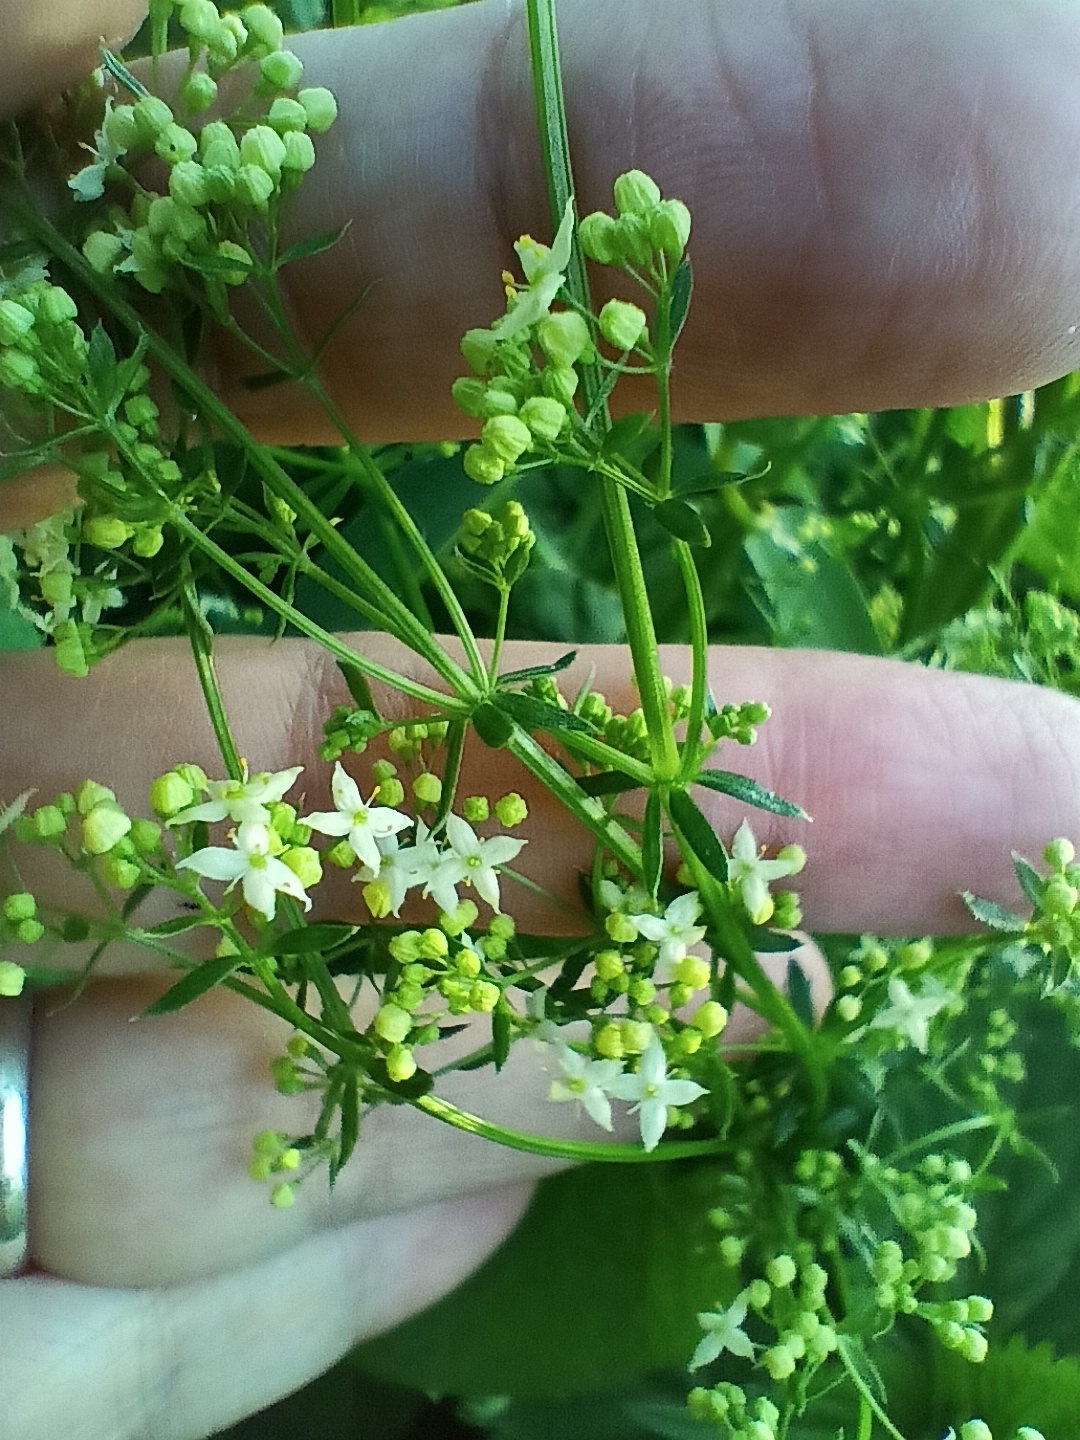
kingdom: Plantae
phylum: Tracheophyta
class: Magnoliopsida
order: Gentianales
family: Rubiaceae
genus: Galium
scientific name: Galium mollugo
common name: Hedge bedstraw
